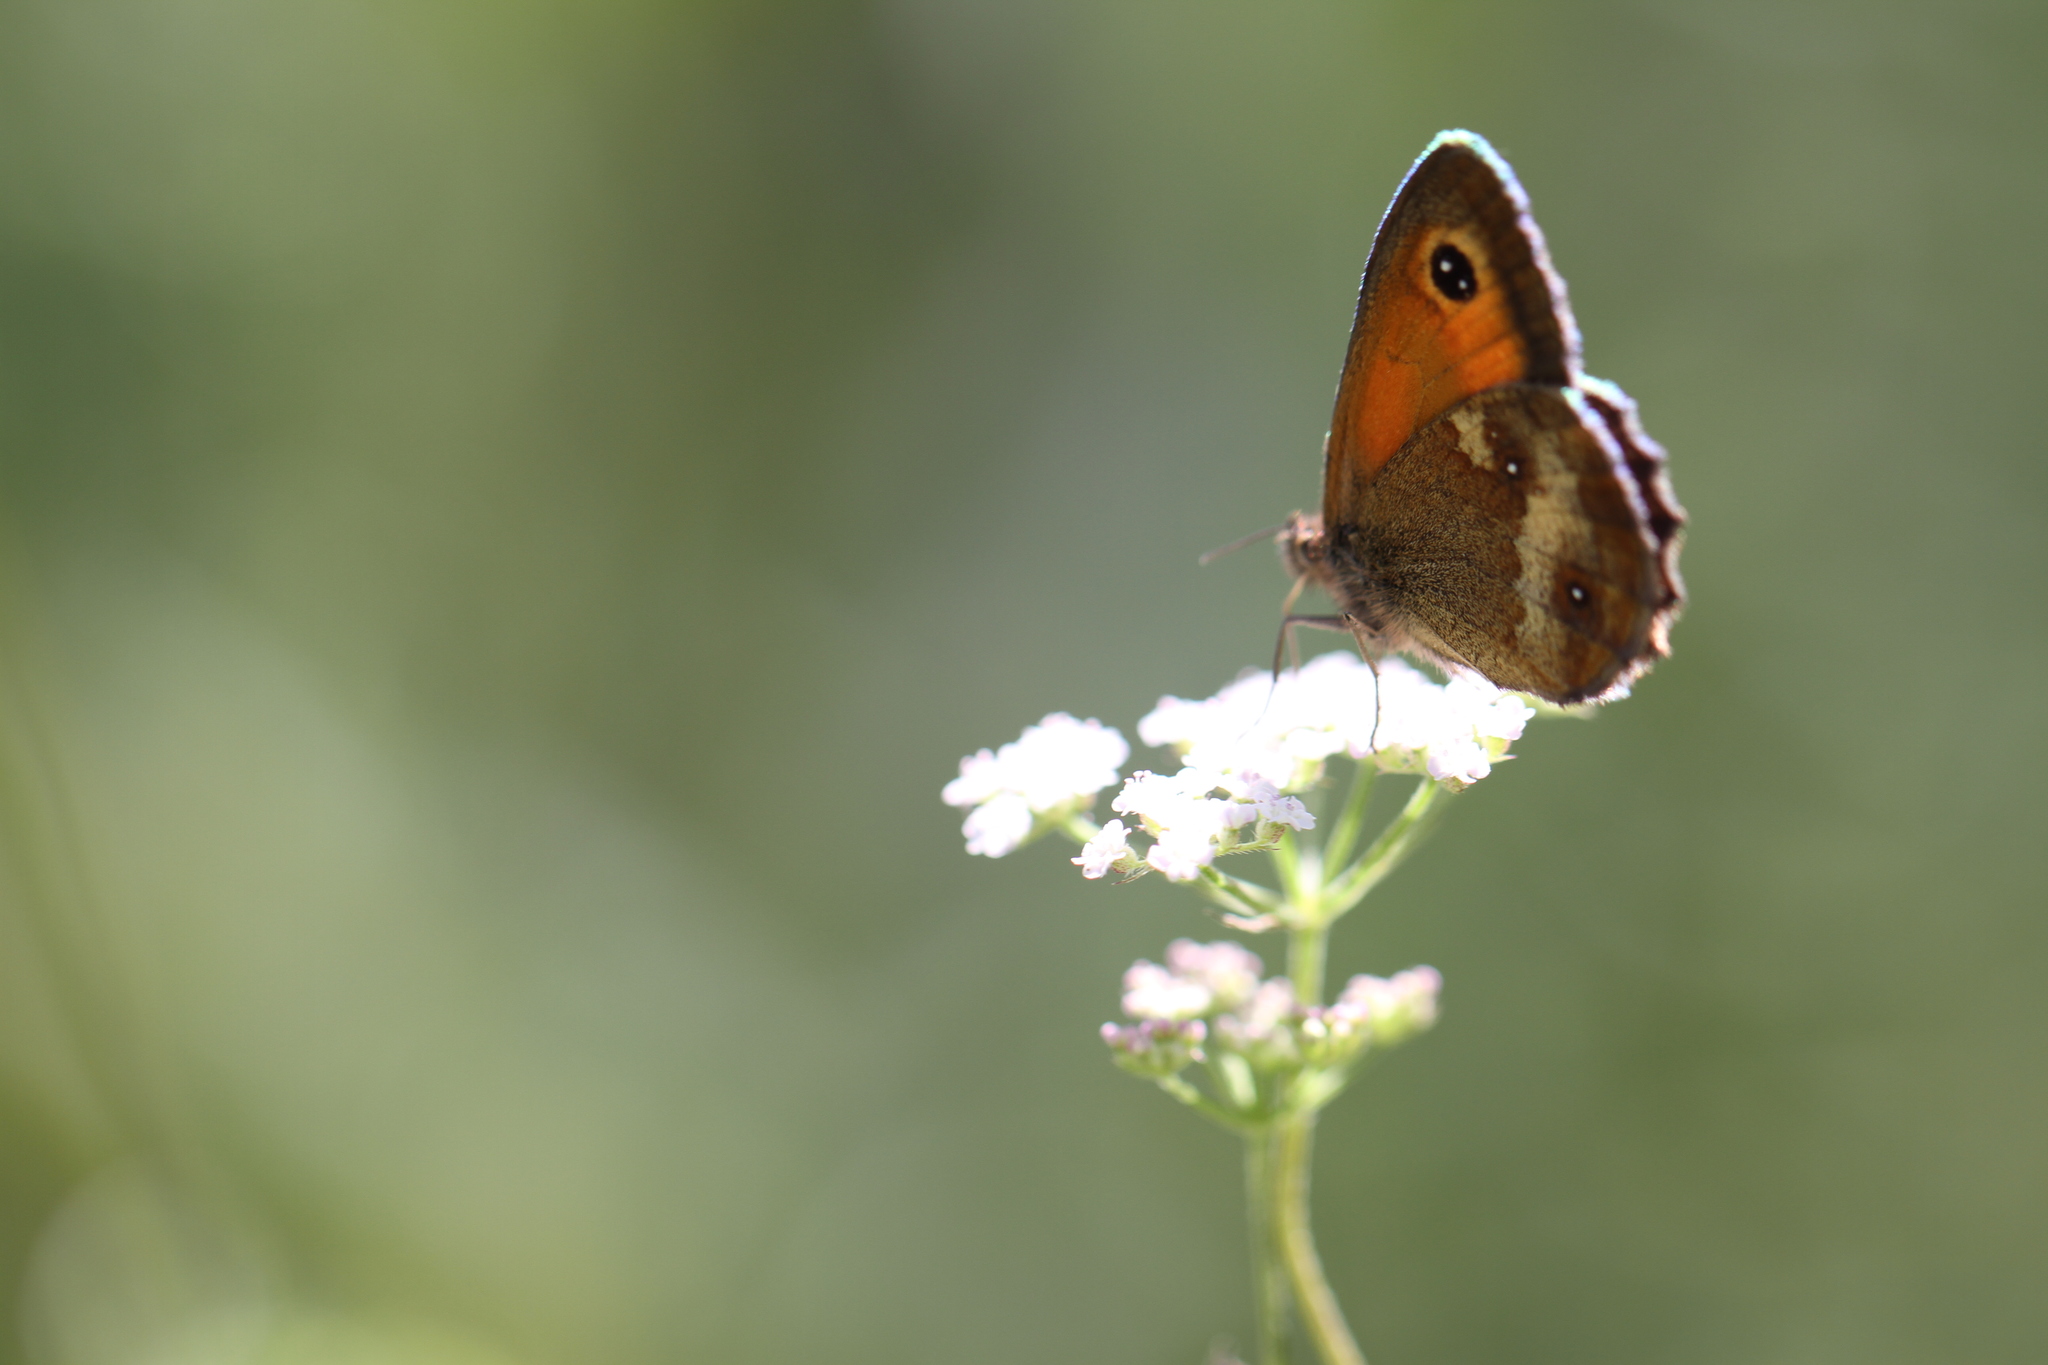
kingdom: Animalia
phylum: Arthropoda
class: Insecta
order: Lepidoptera
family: Nymphalidae
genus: Pyronia
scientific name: Pyronia tithonus
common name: Gatekeeper
